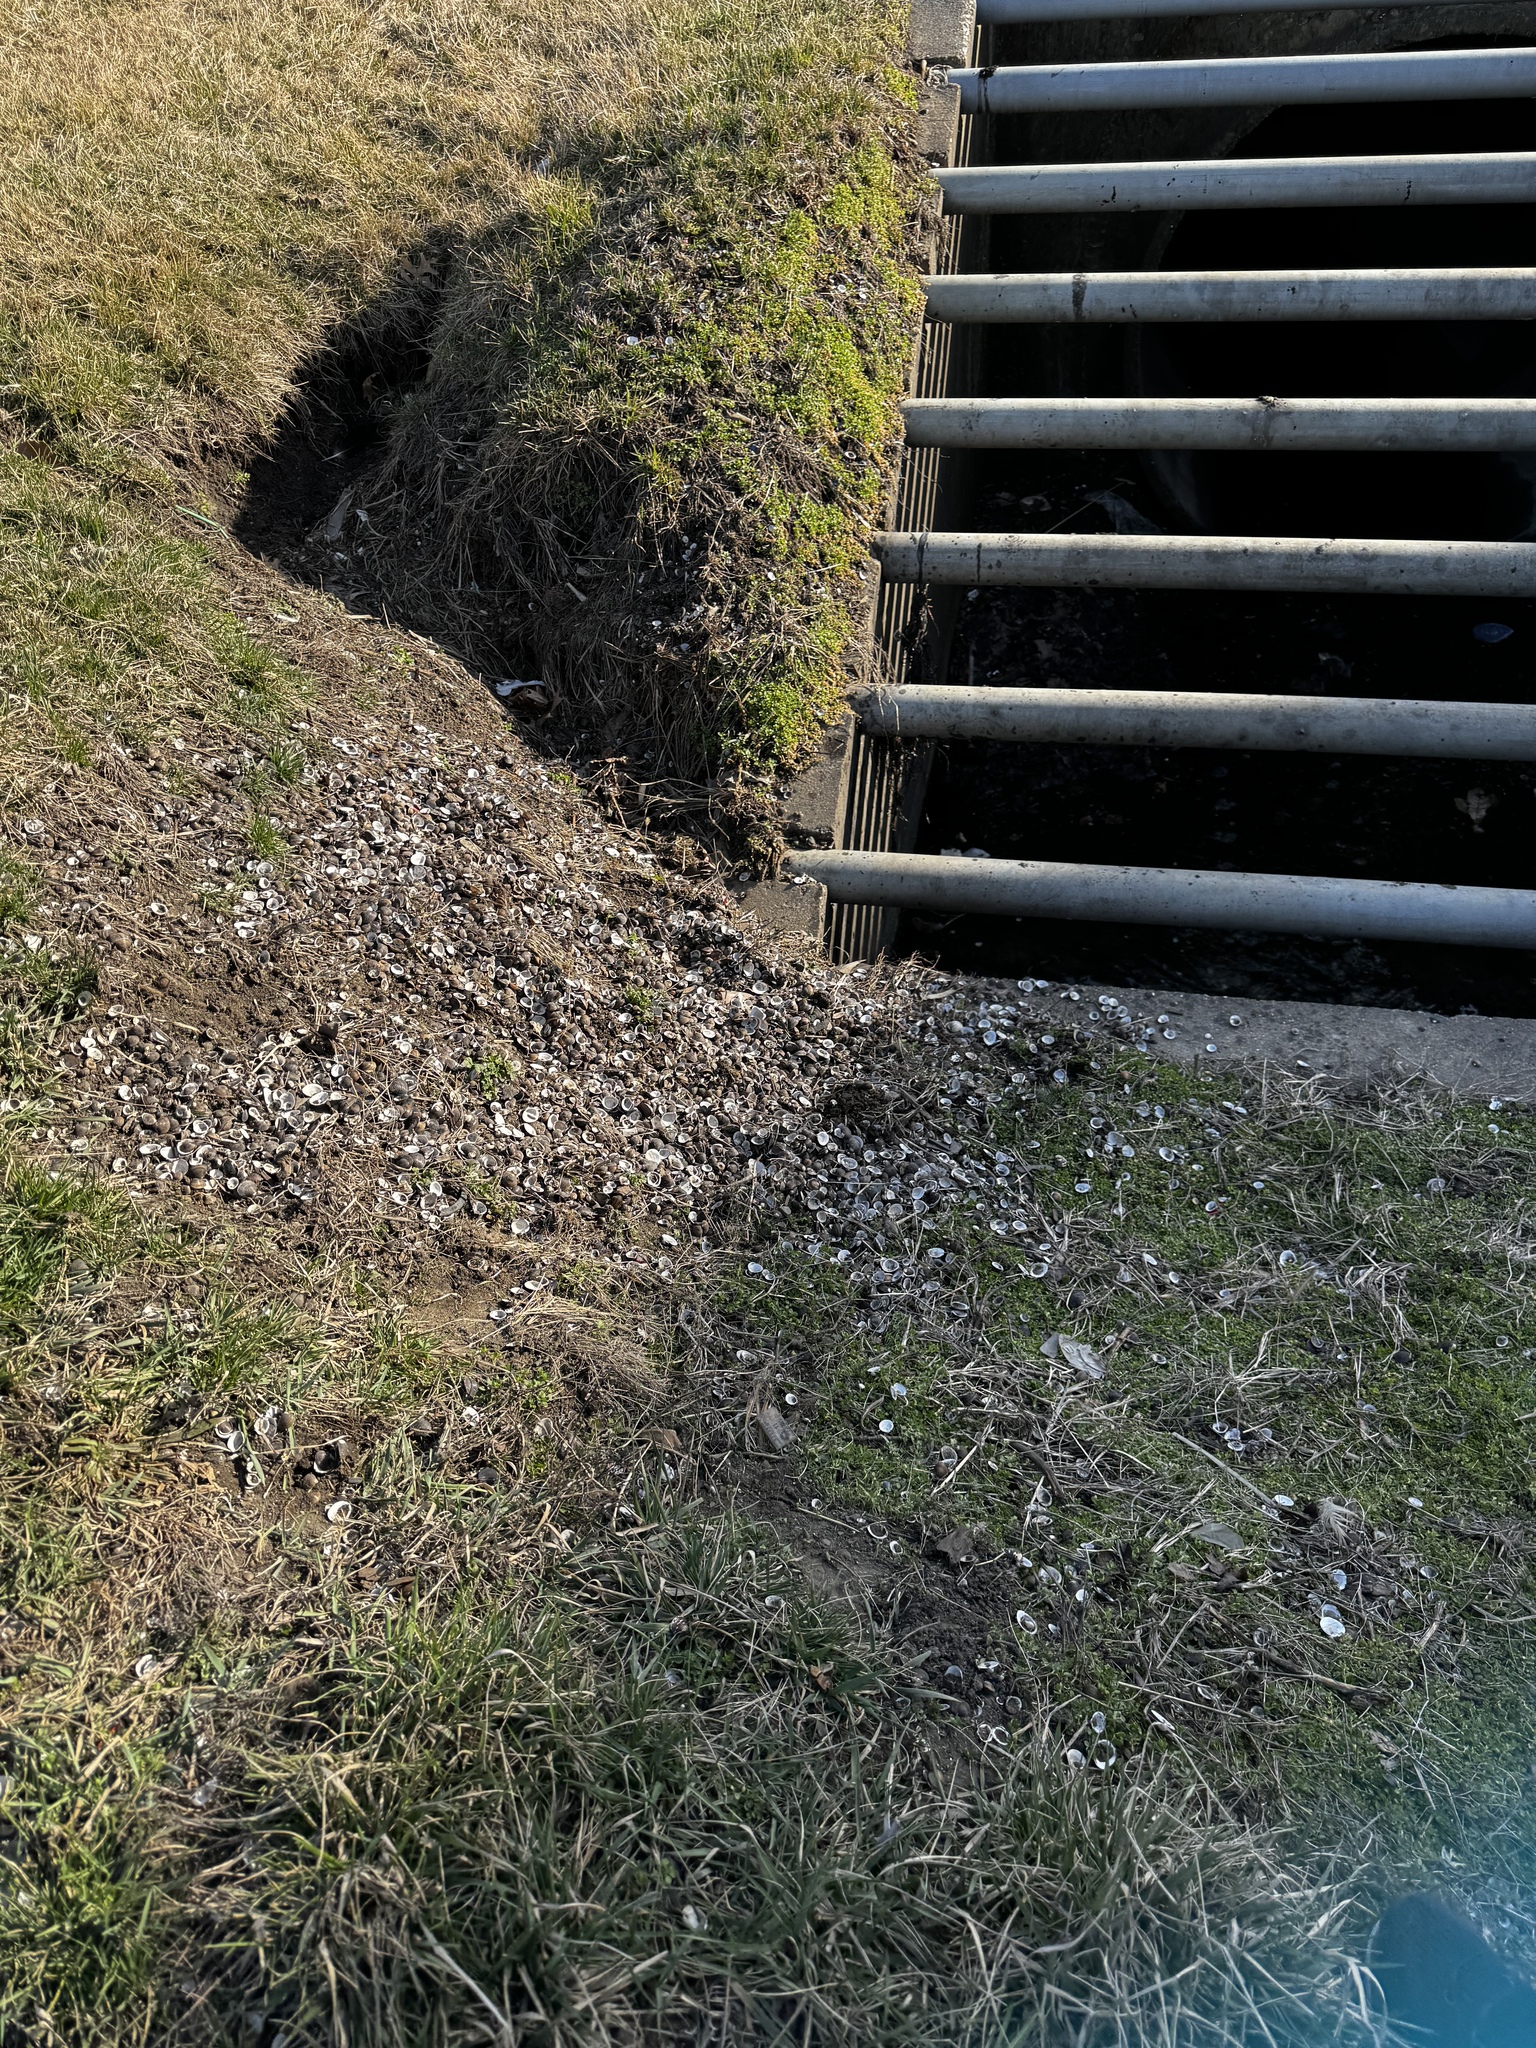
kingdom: Animalia
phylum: Mollusca
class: Bivalvia
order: Venerida
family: Cyrenidae
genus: Corbicula
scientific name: Corbicula fluminea
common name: Asian clam
